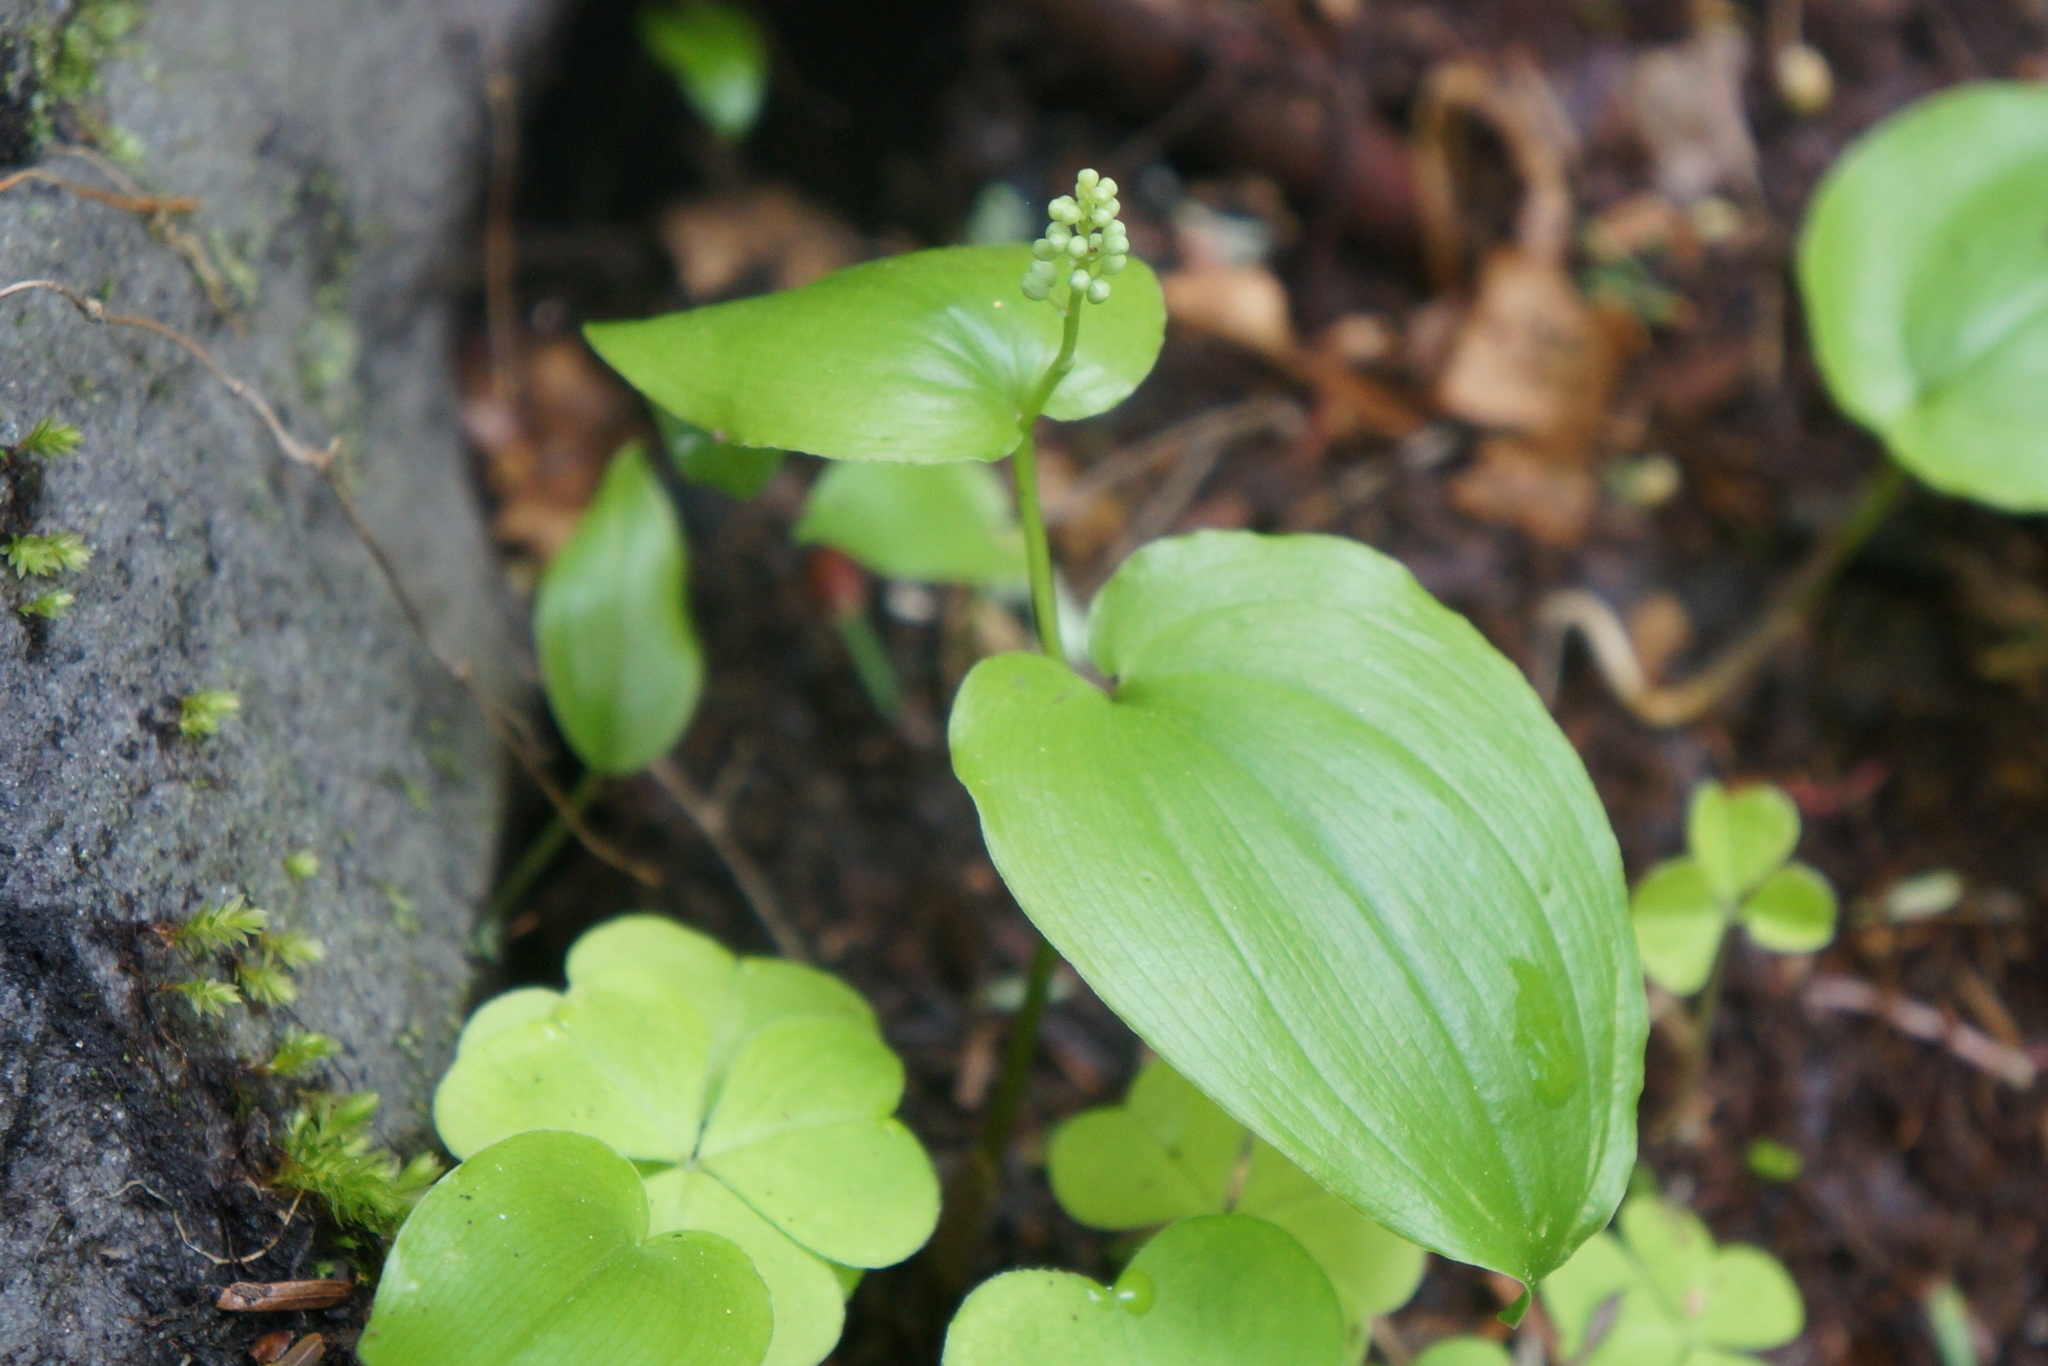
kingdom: Plantae
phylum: Tracheophyta
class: Liliopsida
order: Asparagales
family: Asparagaceae
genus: Maianthemum
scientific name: Maianthemum canadense
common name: False lily-of-the-valley
